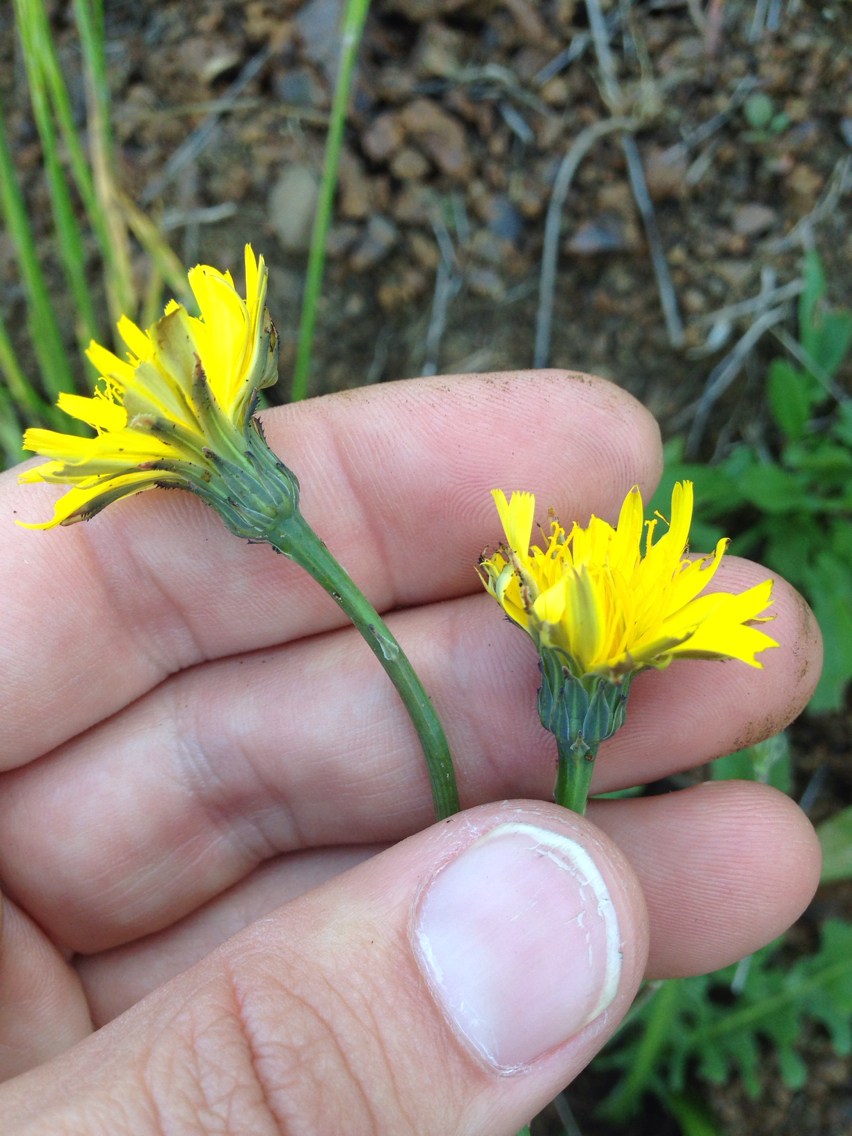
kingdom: Plantae
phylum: Tracheophyta
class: Magnoliopsida
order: Asterales
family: Asteraceae
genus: Hypochaeris
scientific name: Hypochaeris radicata
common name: Flatweed
